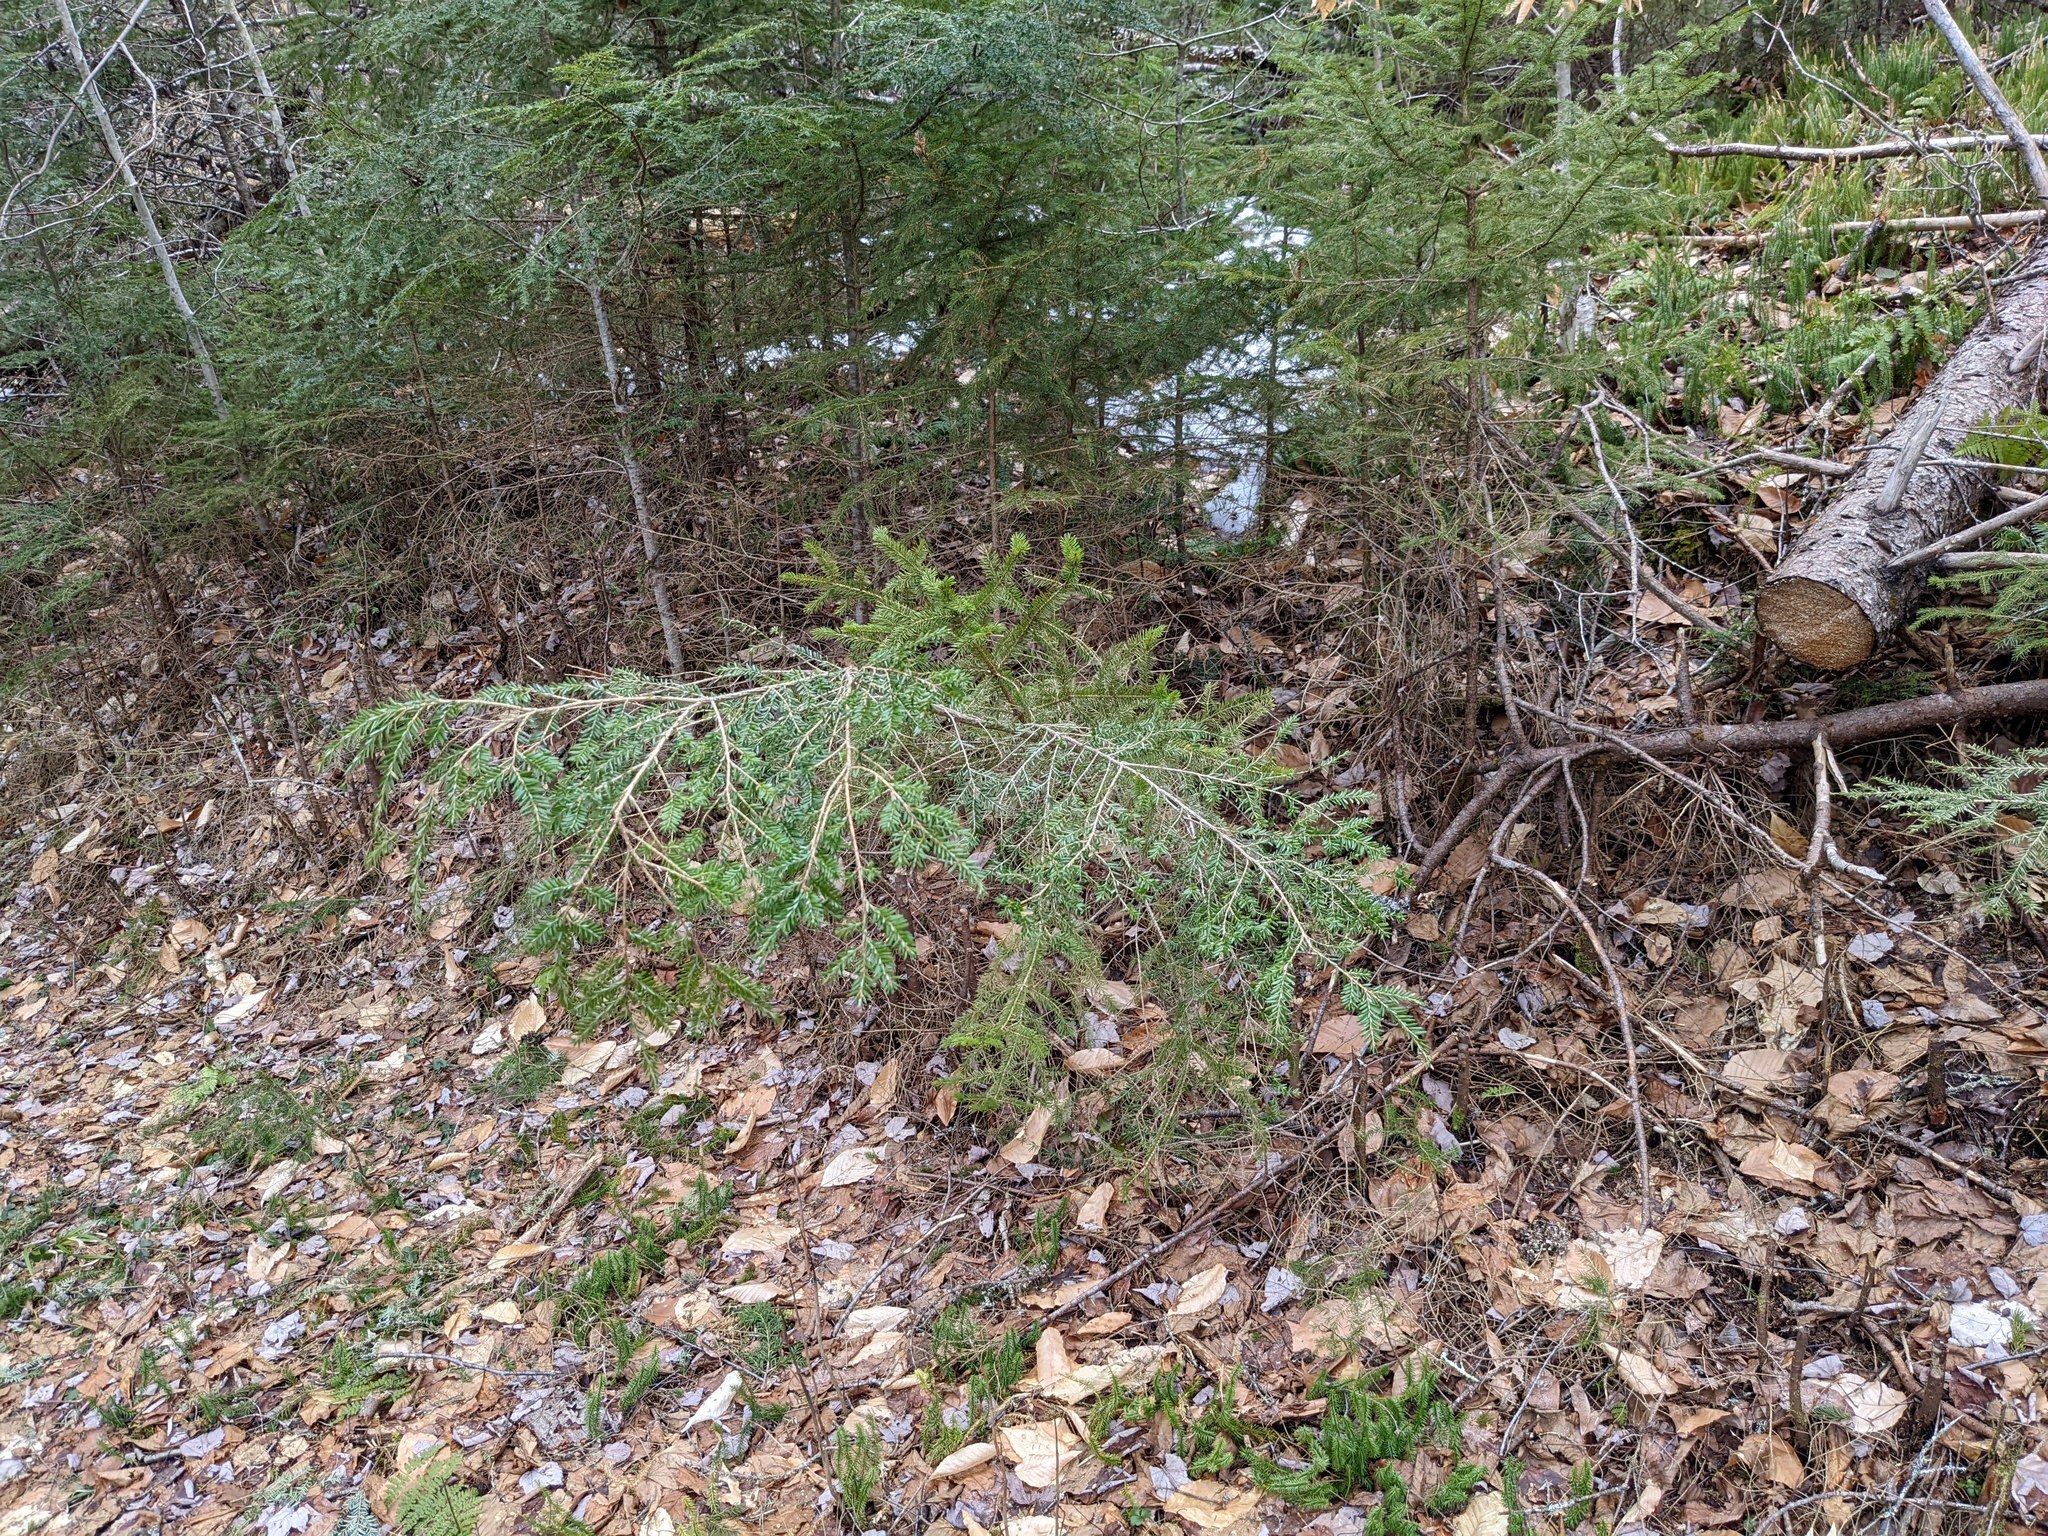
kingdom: Plantae
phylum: Tracheophyta
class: Pinopsida
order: Pinales
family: Pinaceae
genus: Tsuga
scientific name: Tsuga canadensis
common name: Eastern hemlock
